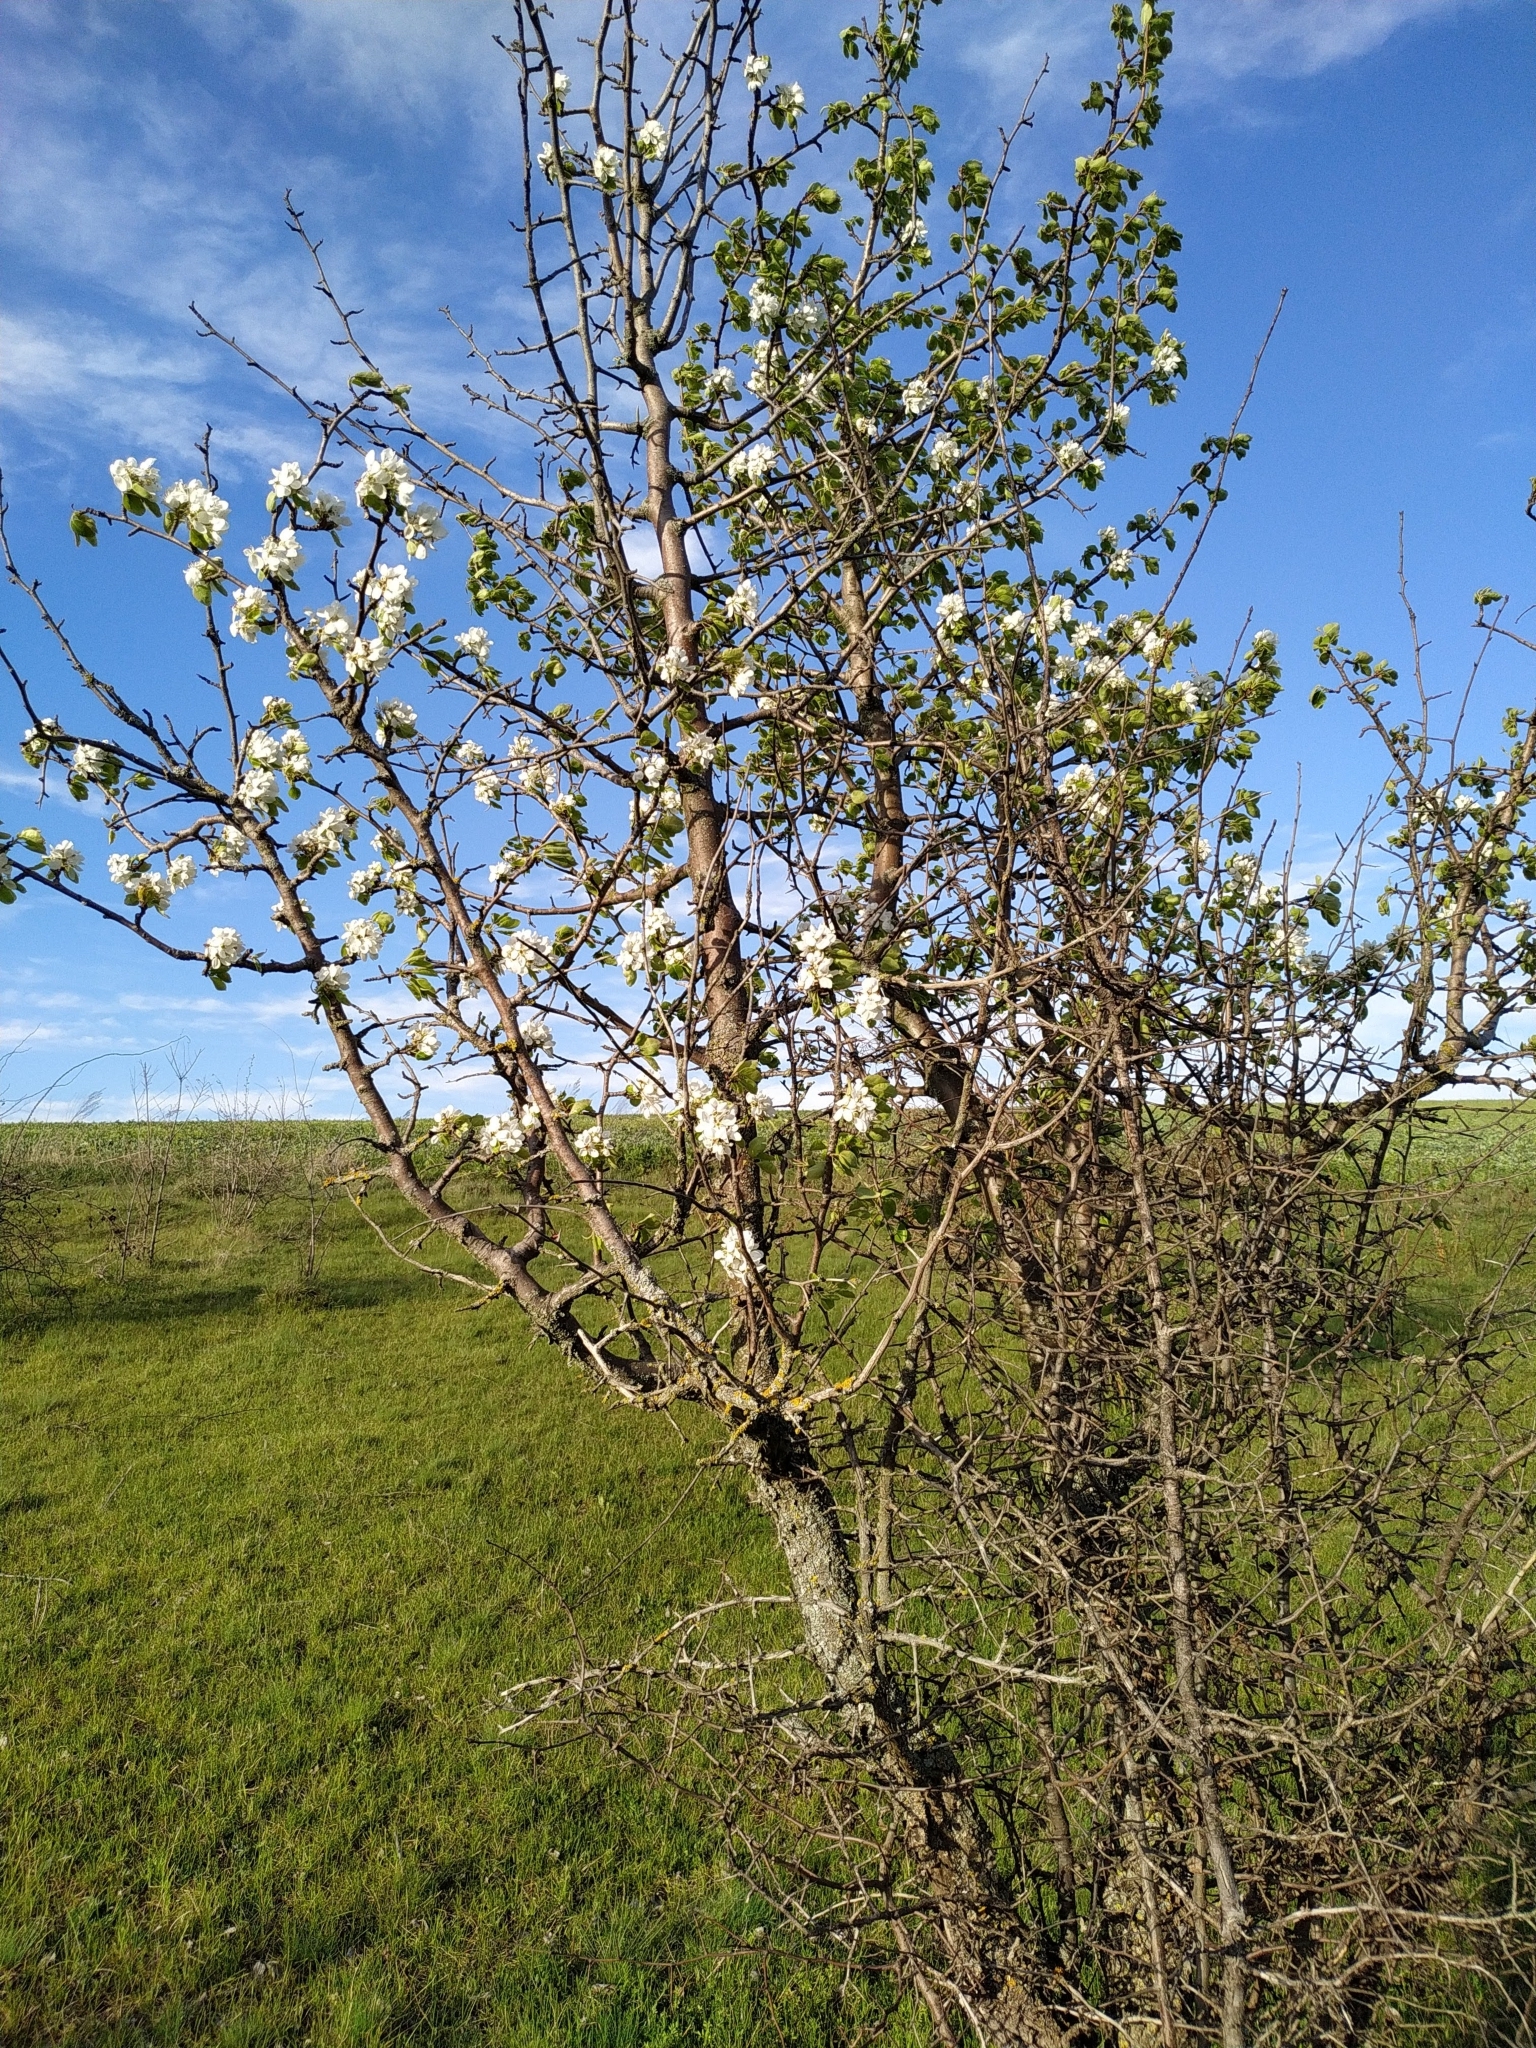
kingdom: Plantae
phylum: Tracheophyta
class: Magnoliopsida
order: Rosales
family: Rosaceae
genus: Pyrus
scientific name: Pyrus communis
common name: Pear
